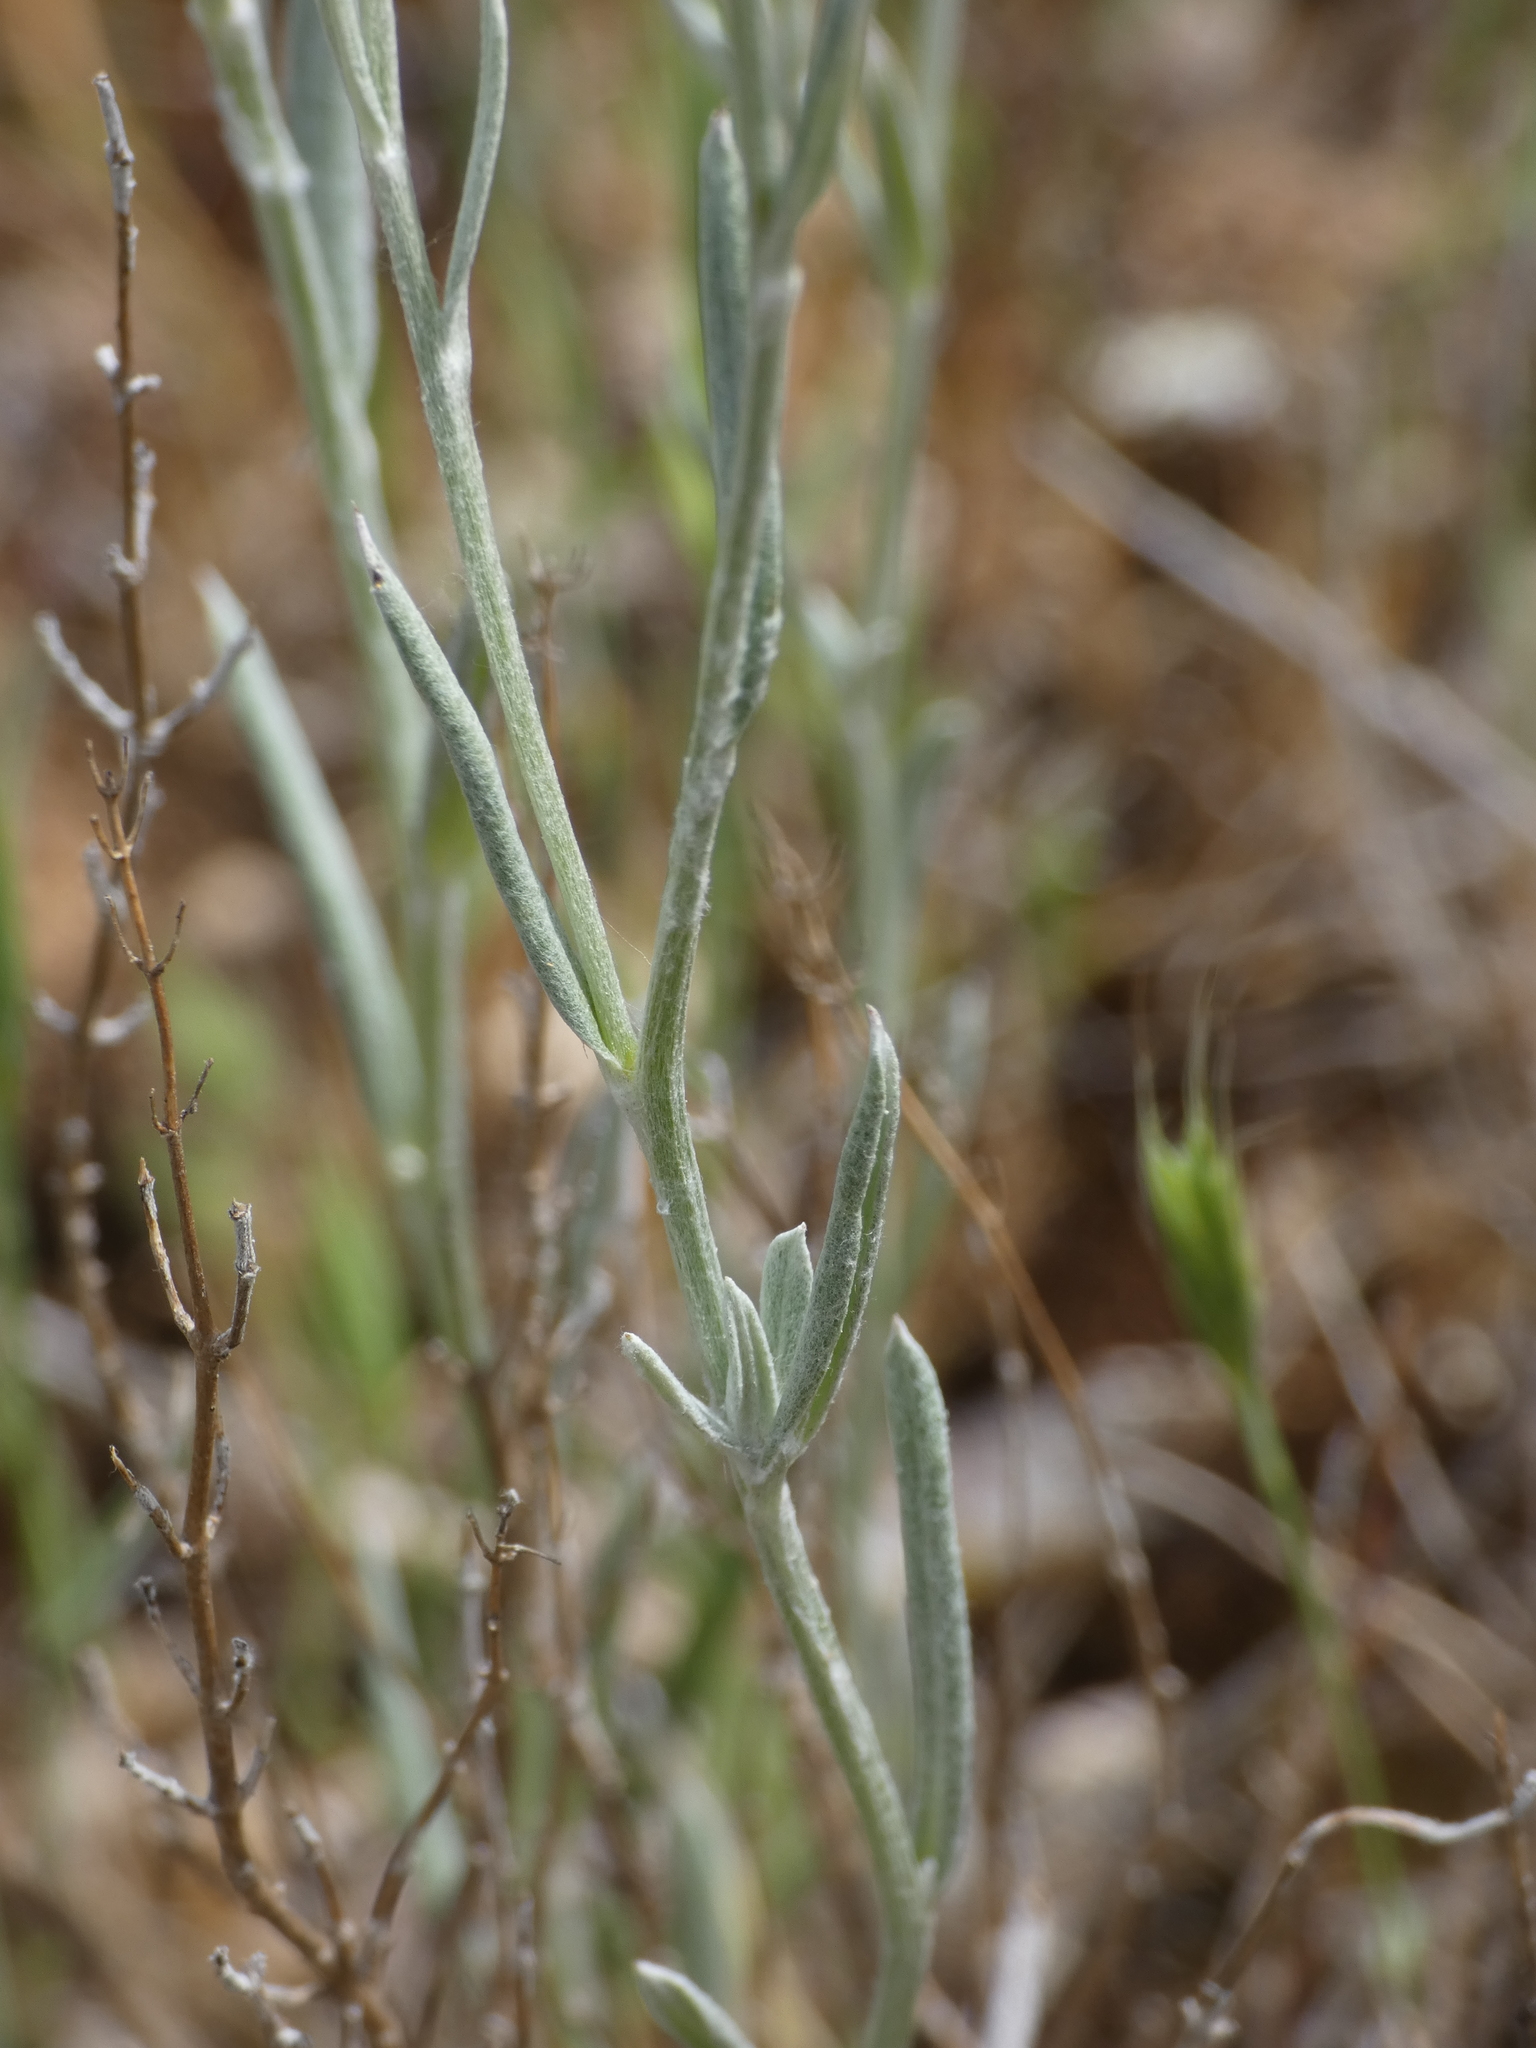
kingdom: Plantae
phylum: Tracheophyta
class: Magnoliopsida
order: Asterales
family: Asteraceae
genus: Xeranthemum
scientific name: Xeranthemum inapertum
